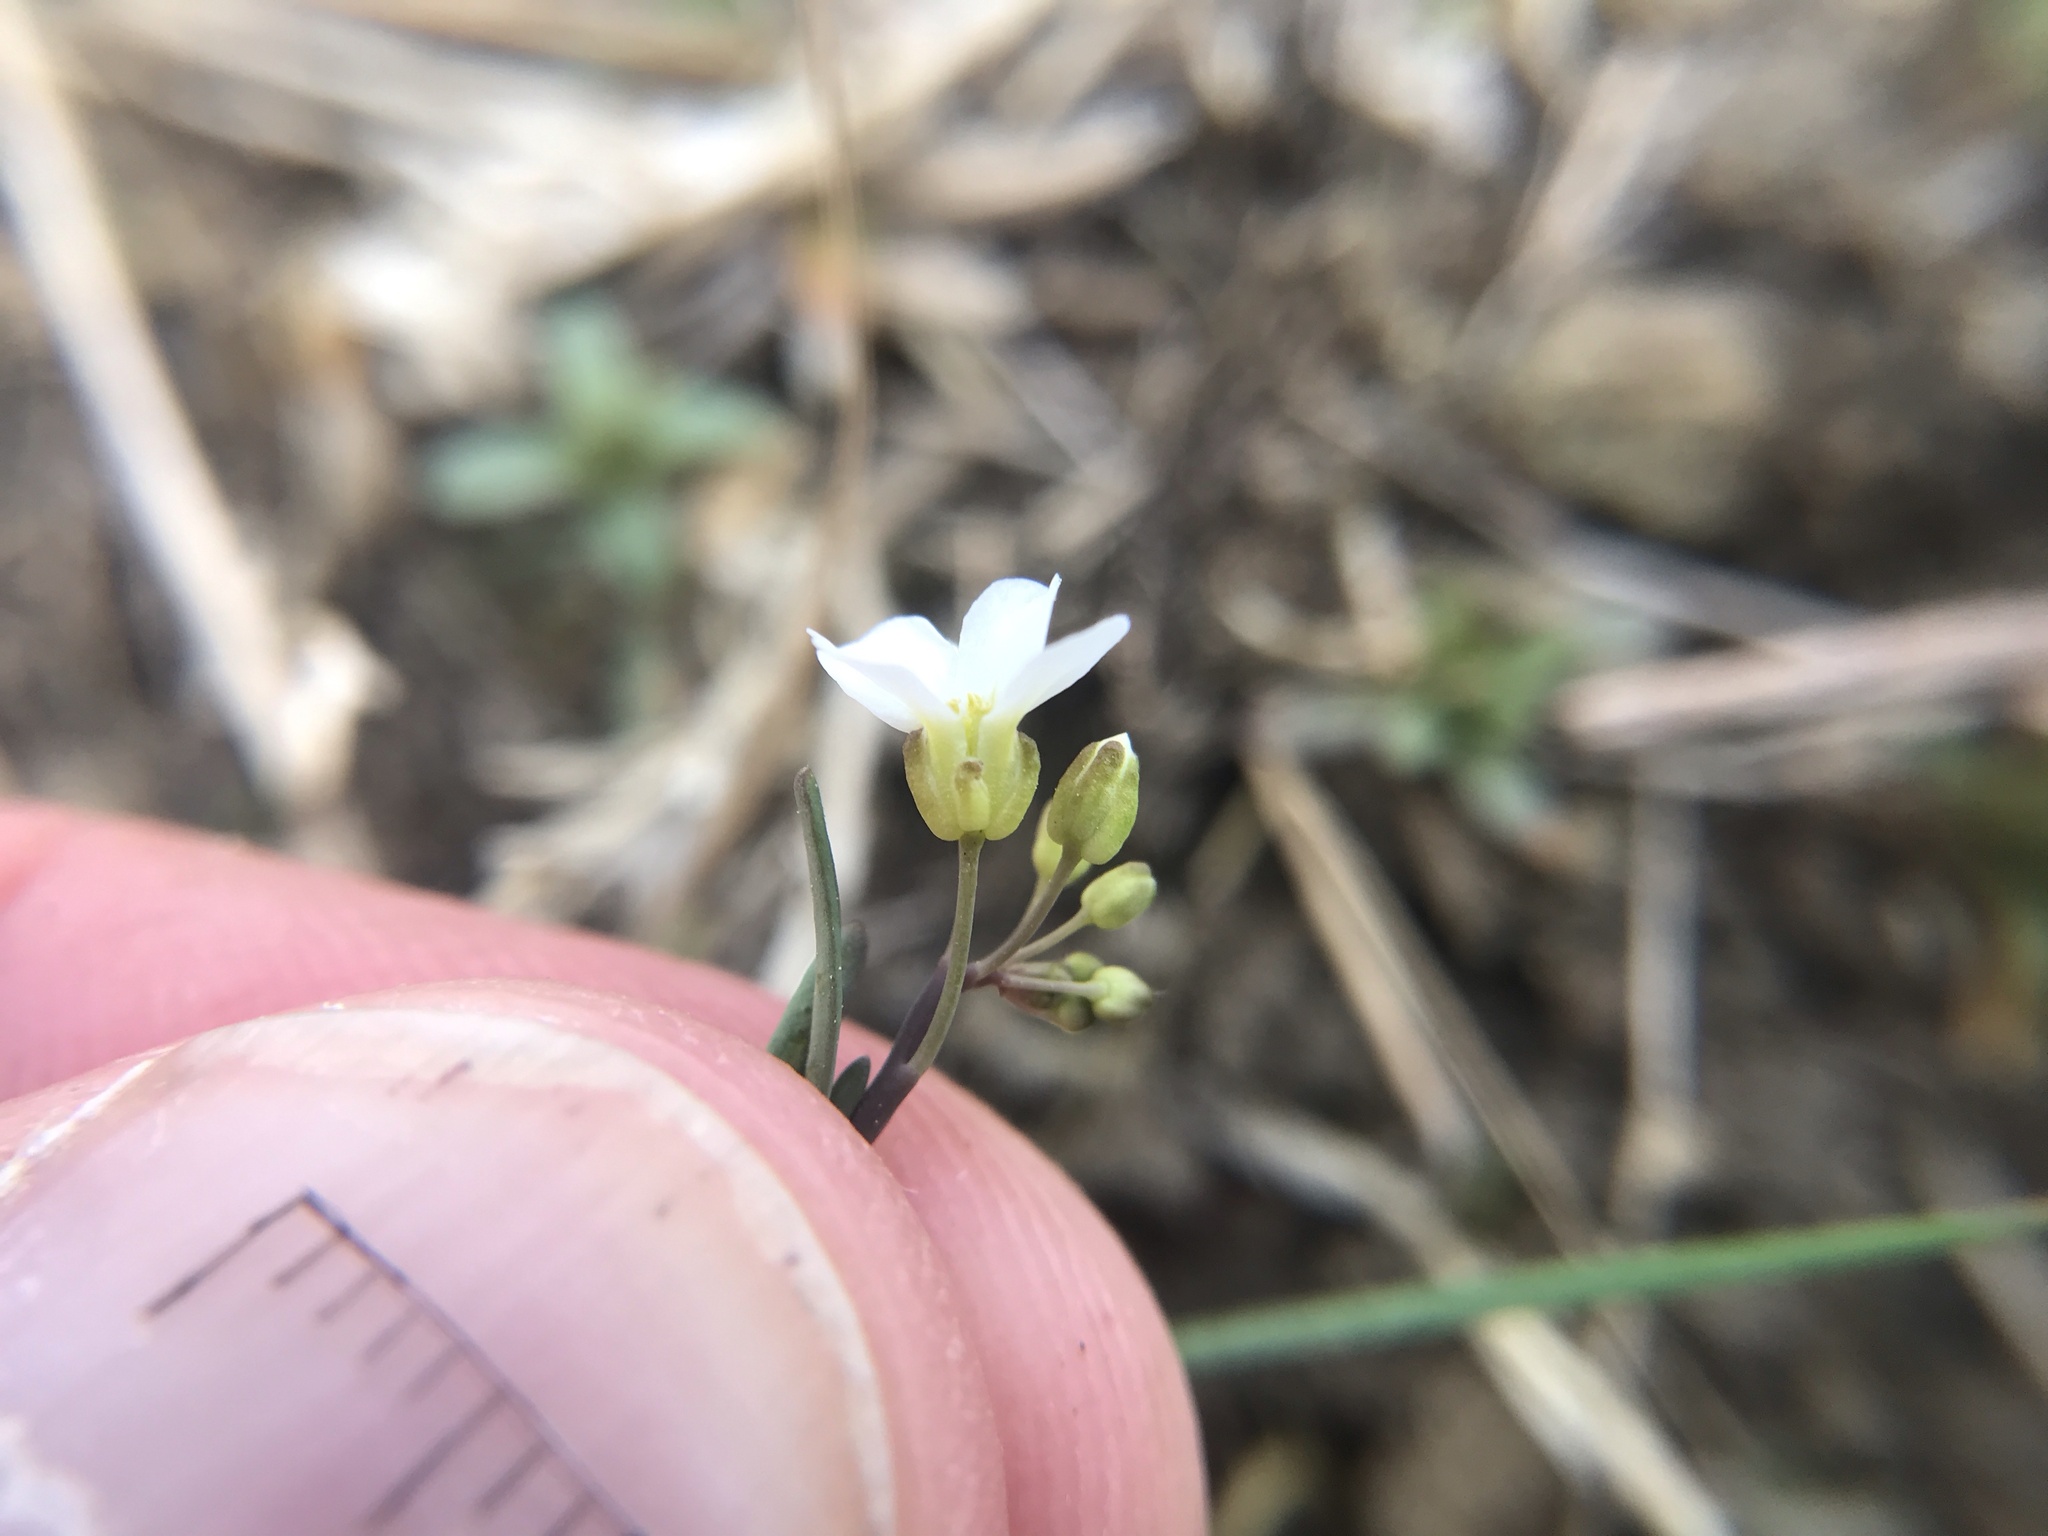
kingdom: Plantae
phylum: Tracheophyta
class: Magnoliopsida
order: Brassicales
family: Brassicaceae
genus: Arabidopsis
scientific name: Arabidopsis lyrata
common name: Lyrate rockcress
